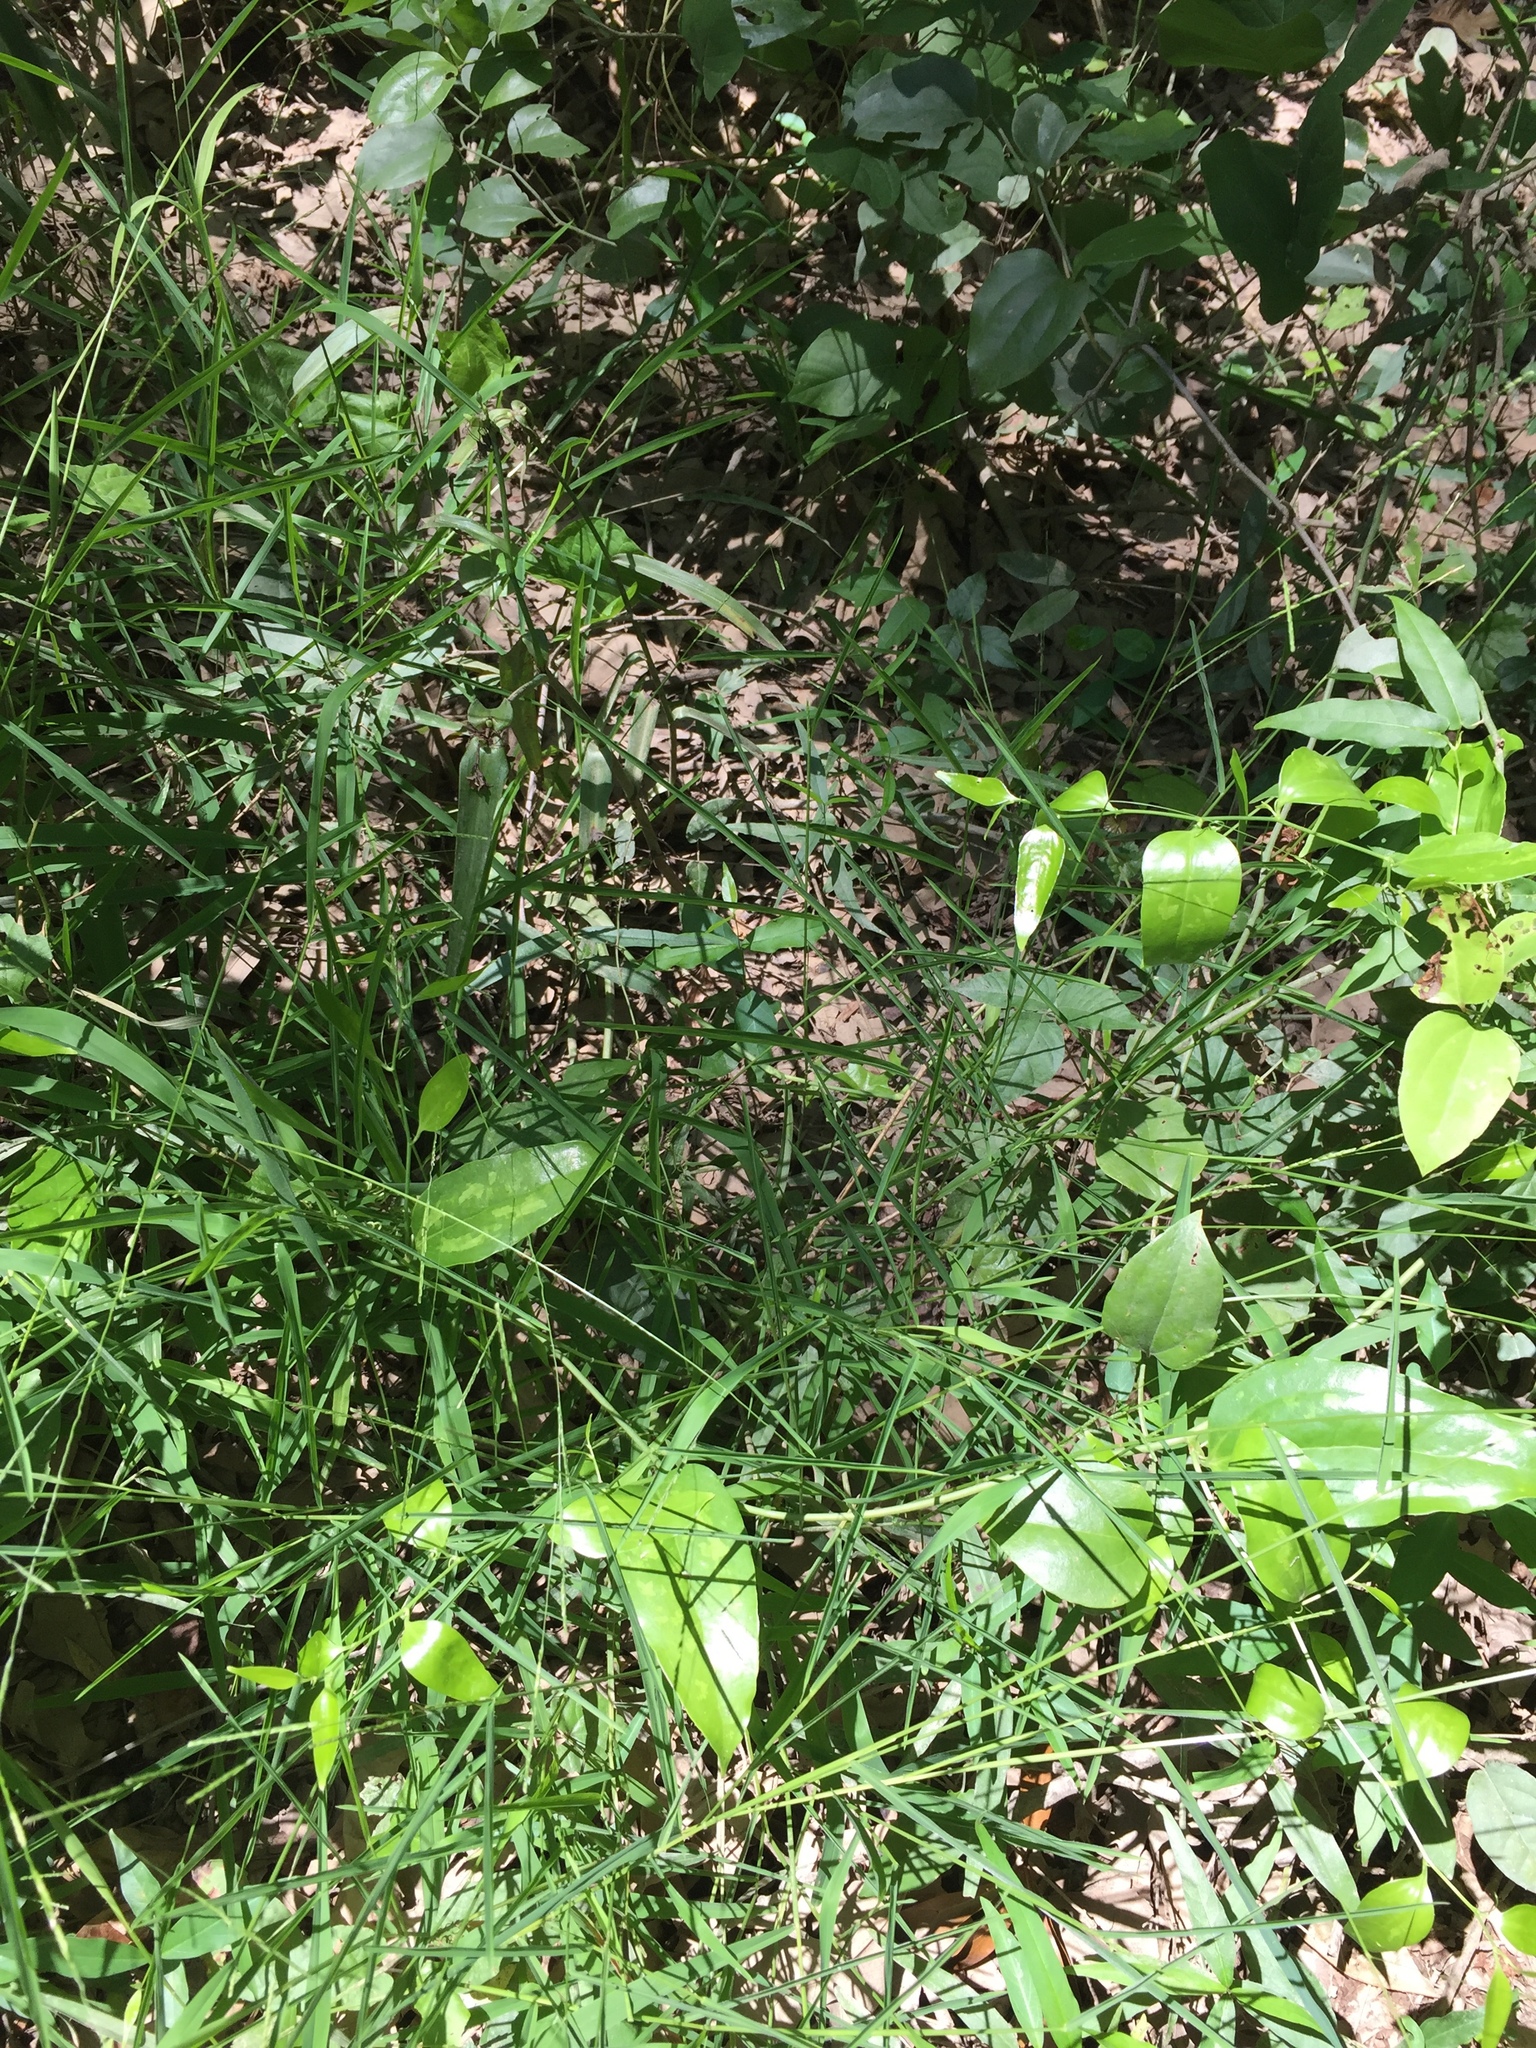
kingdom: Plantae
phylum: Tracheophyta
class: Liliopsida
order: Poales
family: Poaceae
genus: Leersia
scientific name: Leersia virginica
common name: White cutgrass
